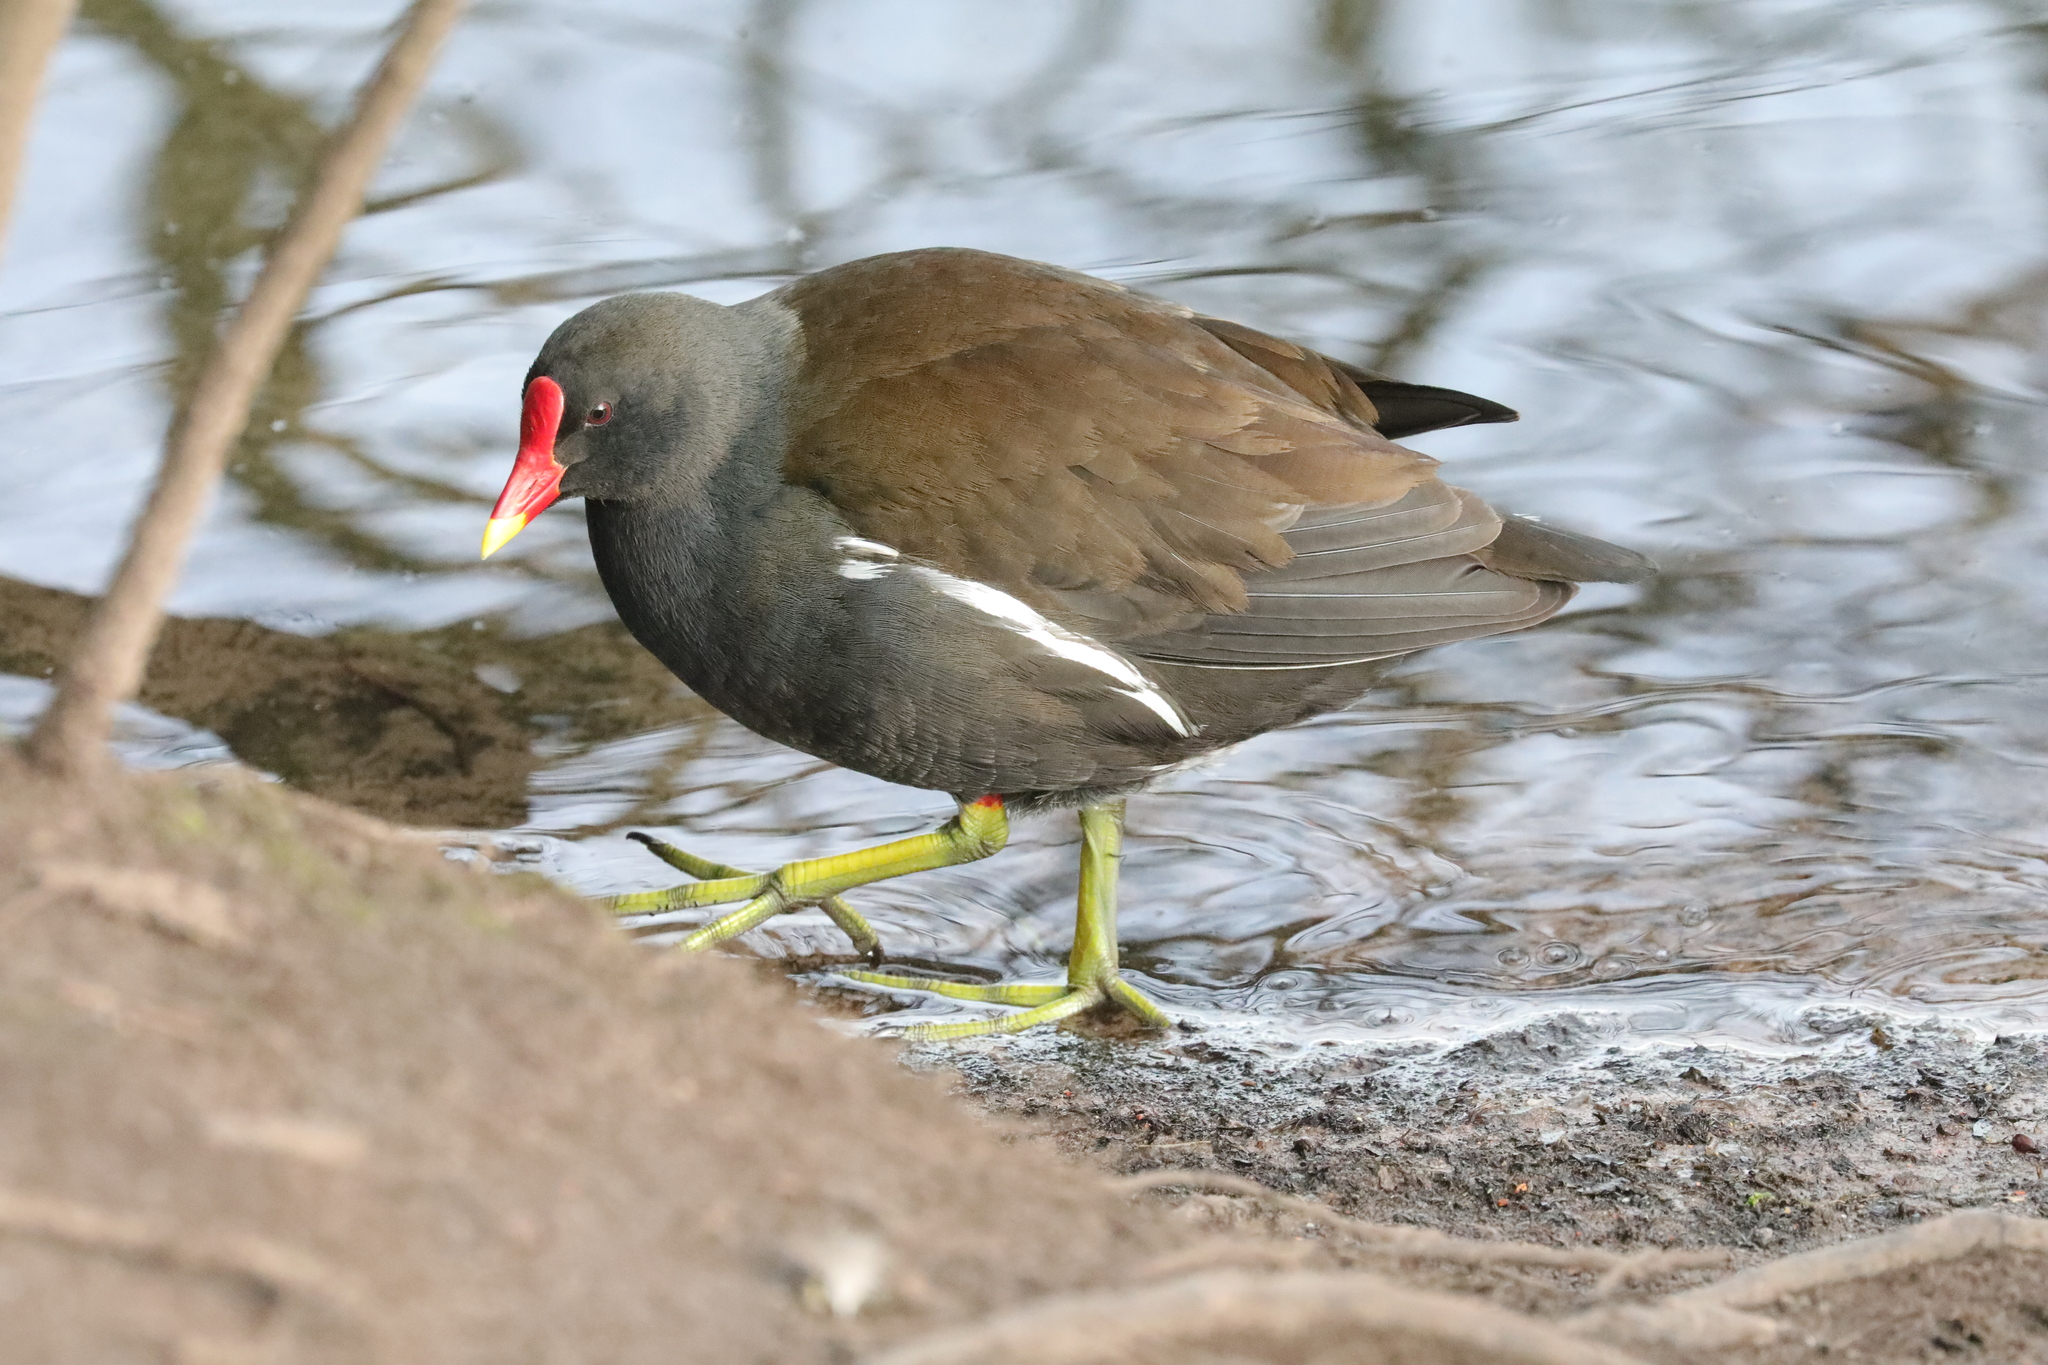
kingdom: Animalia
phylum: Chordata
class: Aves
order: Gruiformes
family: Rallidae
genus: Gallinula
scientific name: Gallinula chloropus
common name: Common moorhen
